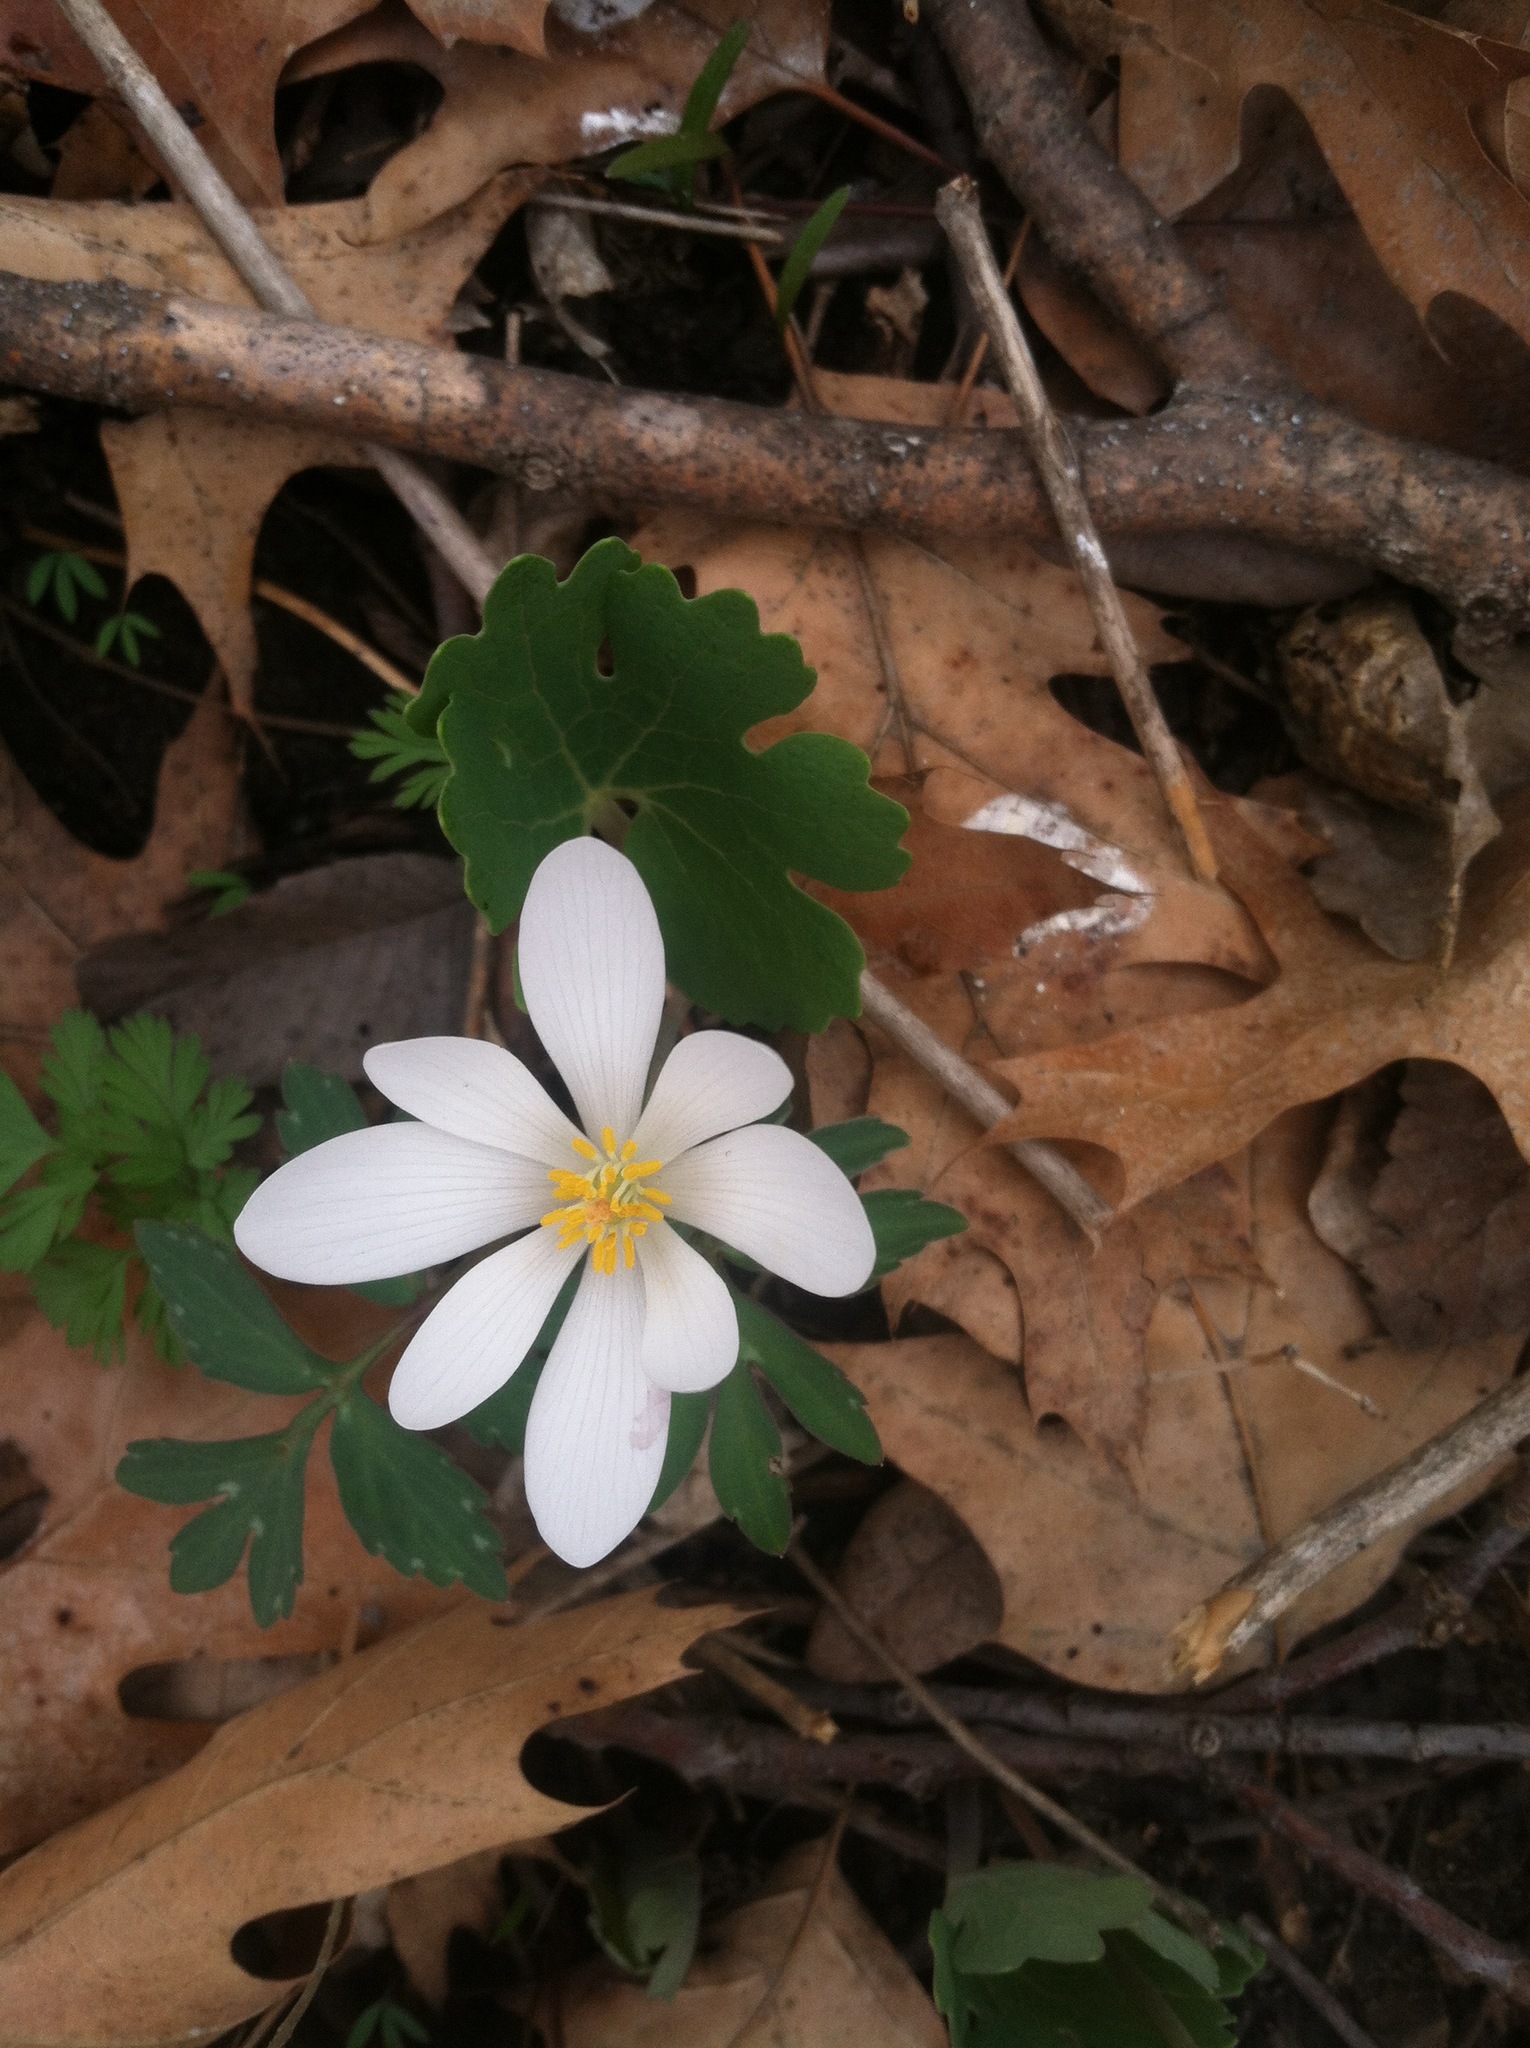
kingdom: Plantae
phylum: Tracheophyta
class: Magnoliopsida
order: Ranunculales
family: Papaveraceae
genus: Sanguinaria
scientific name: Sanguinaria canadensis
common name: Bloodroot
